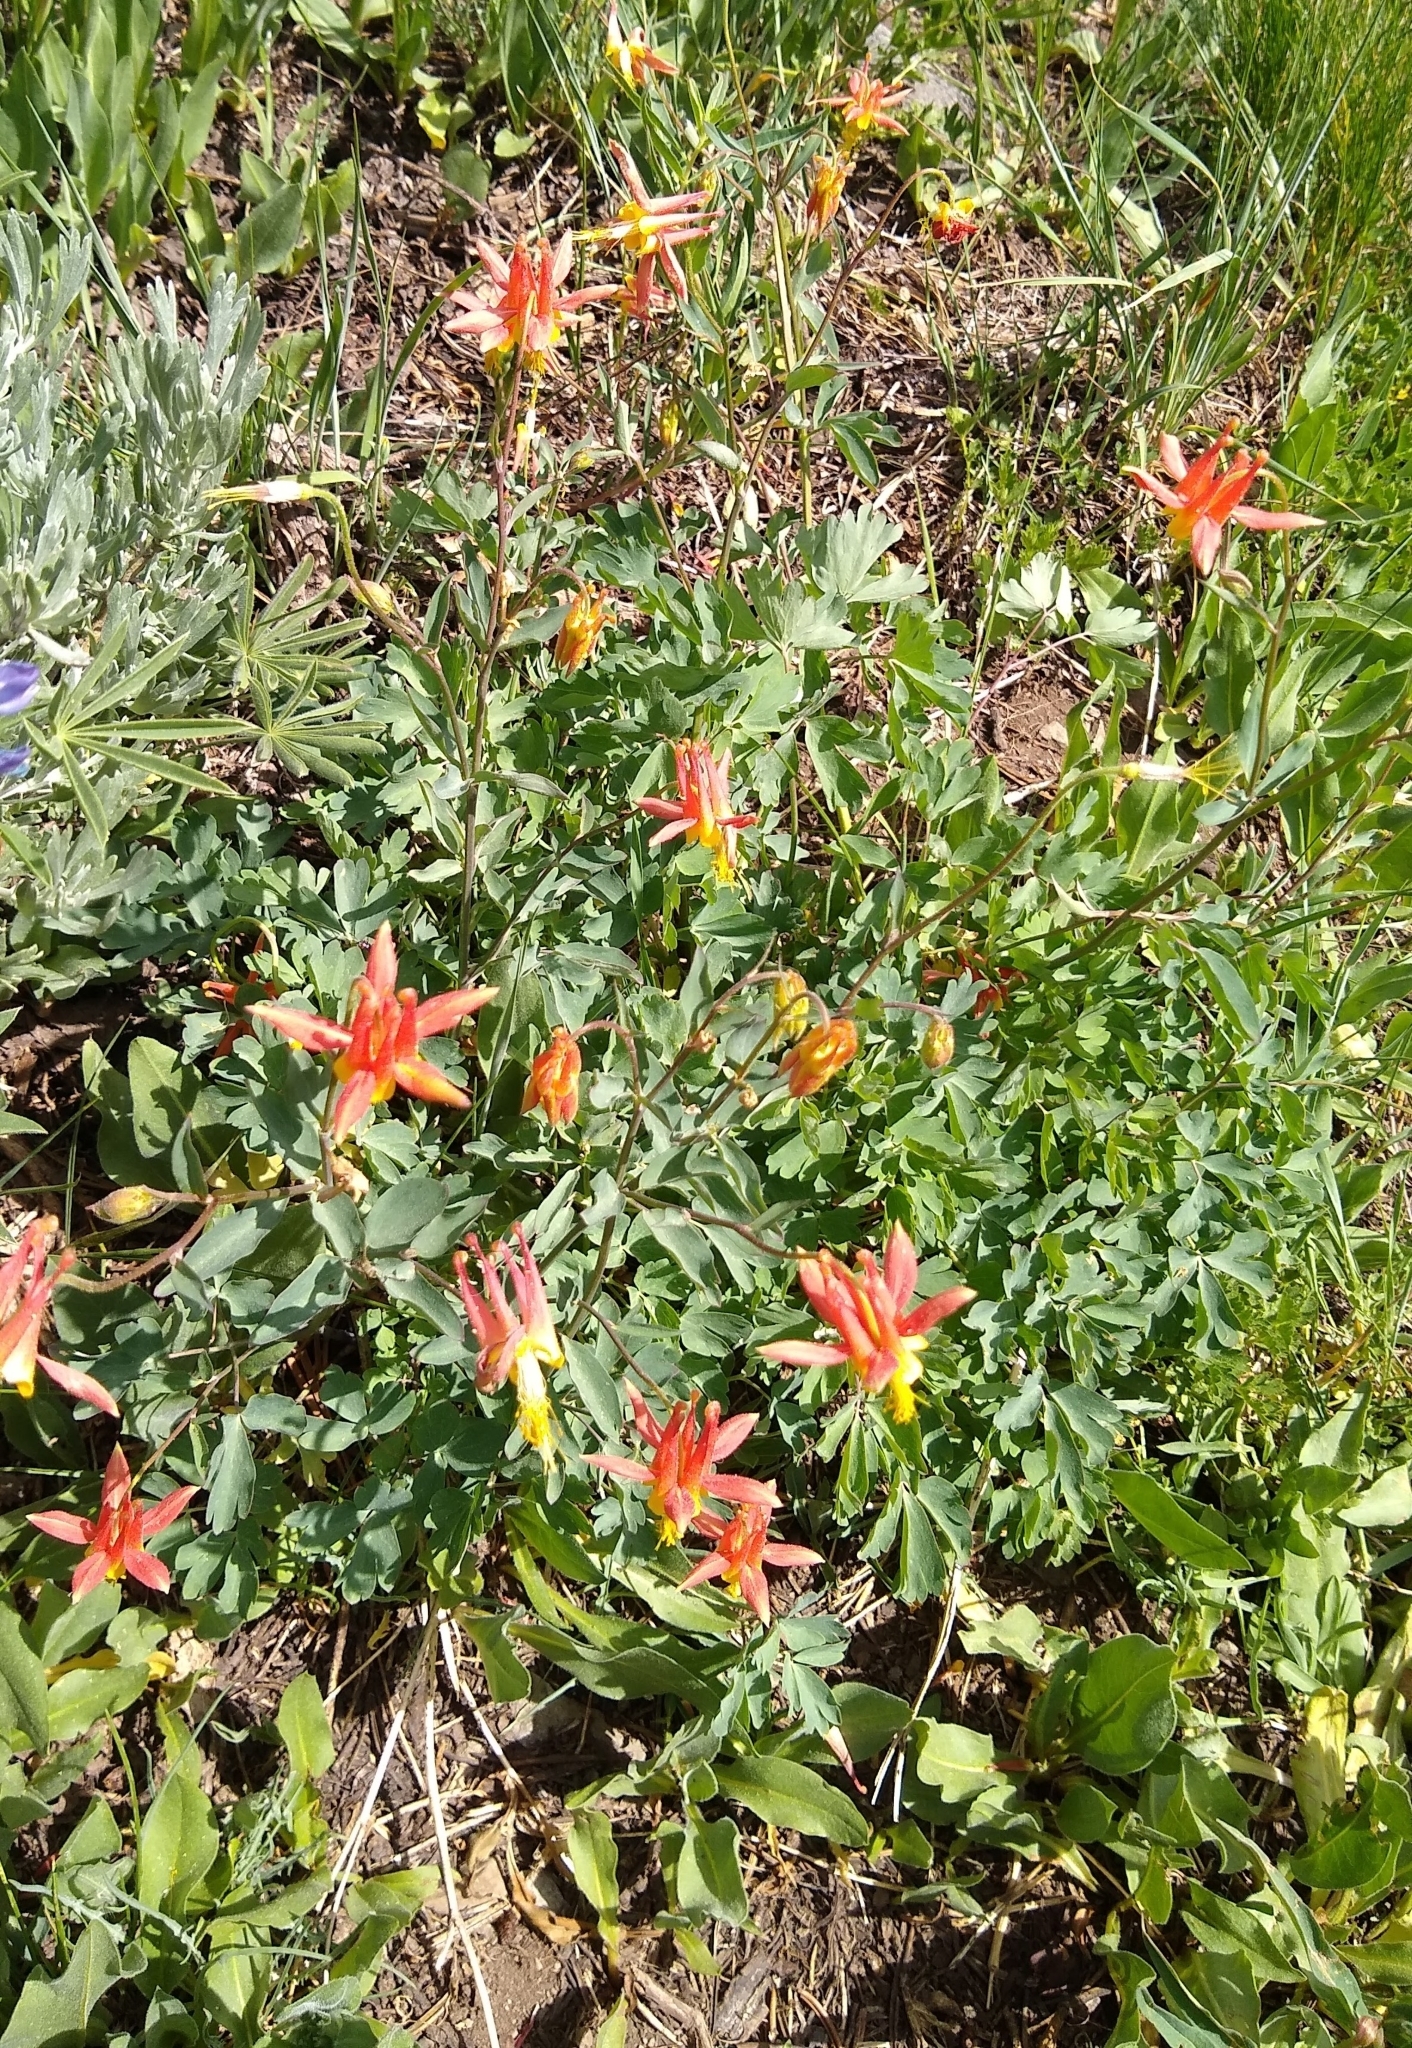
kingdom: Plantae
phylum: Tracheophyta
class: Magnoliopsida
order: Ranunculales
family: Ranunculaceae
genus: Aquilegia
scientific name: Aquilegia formosa
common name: Sitka columbine
